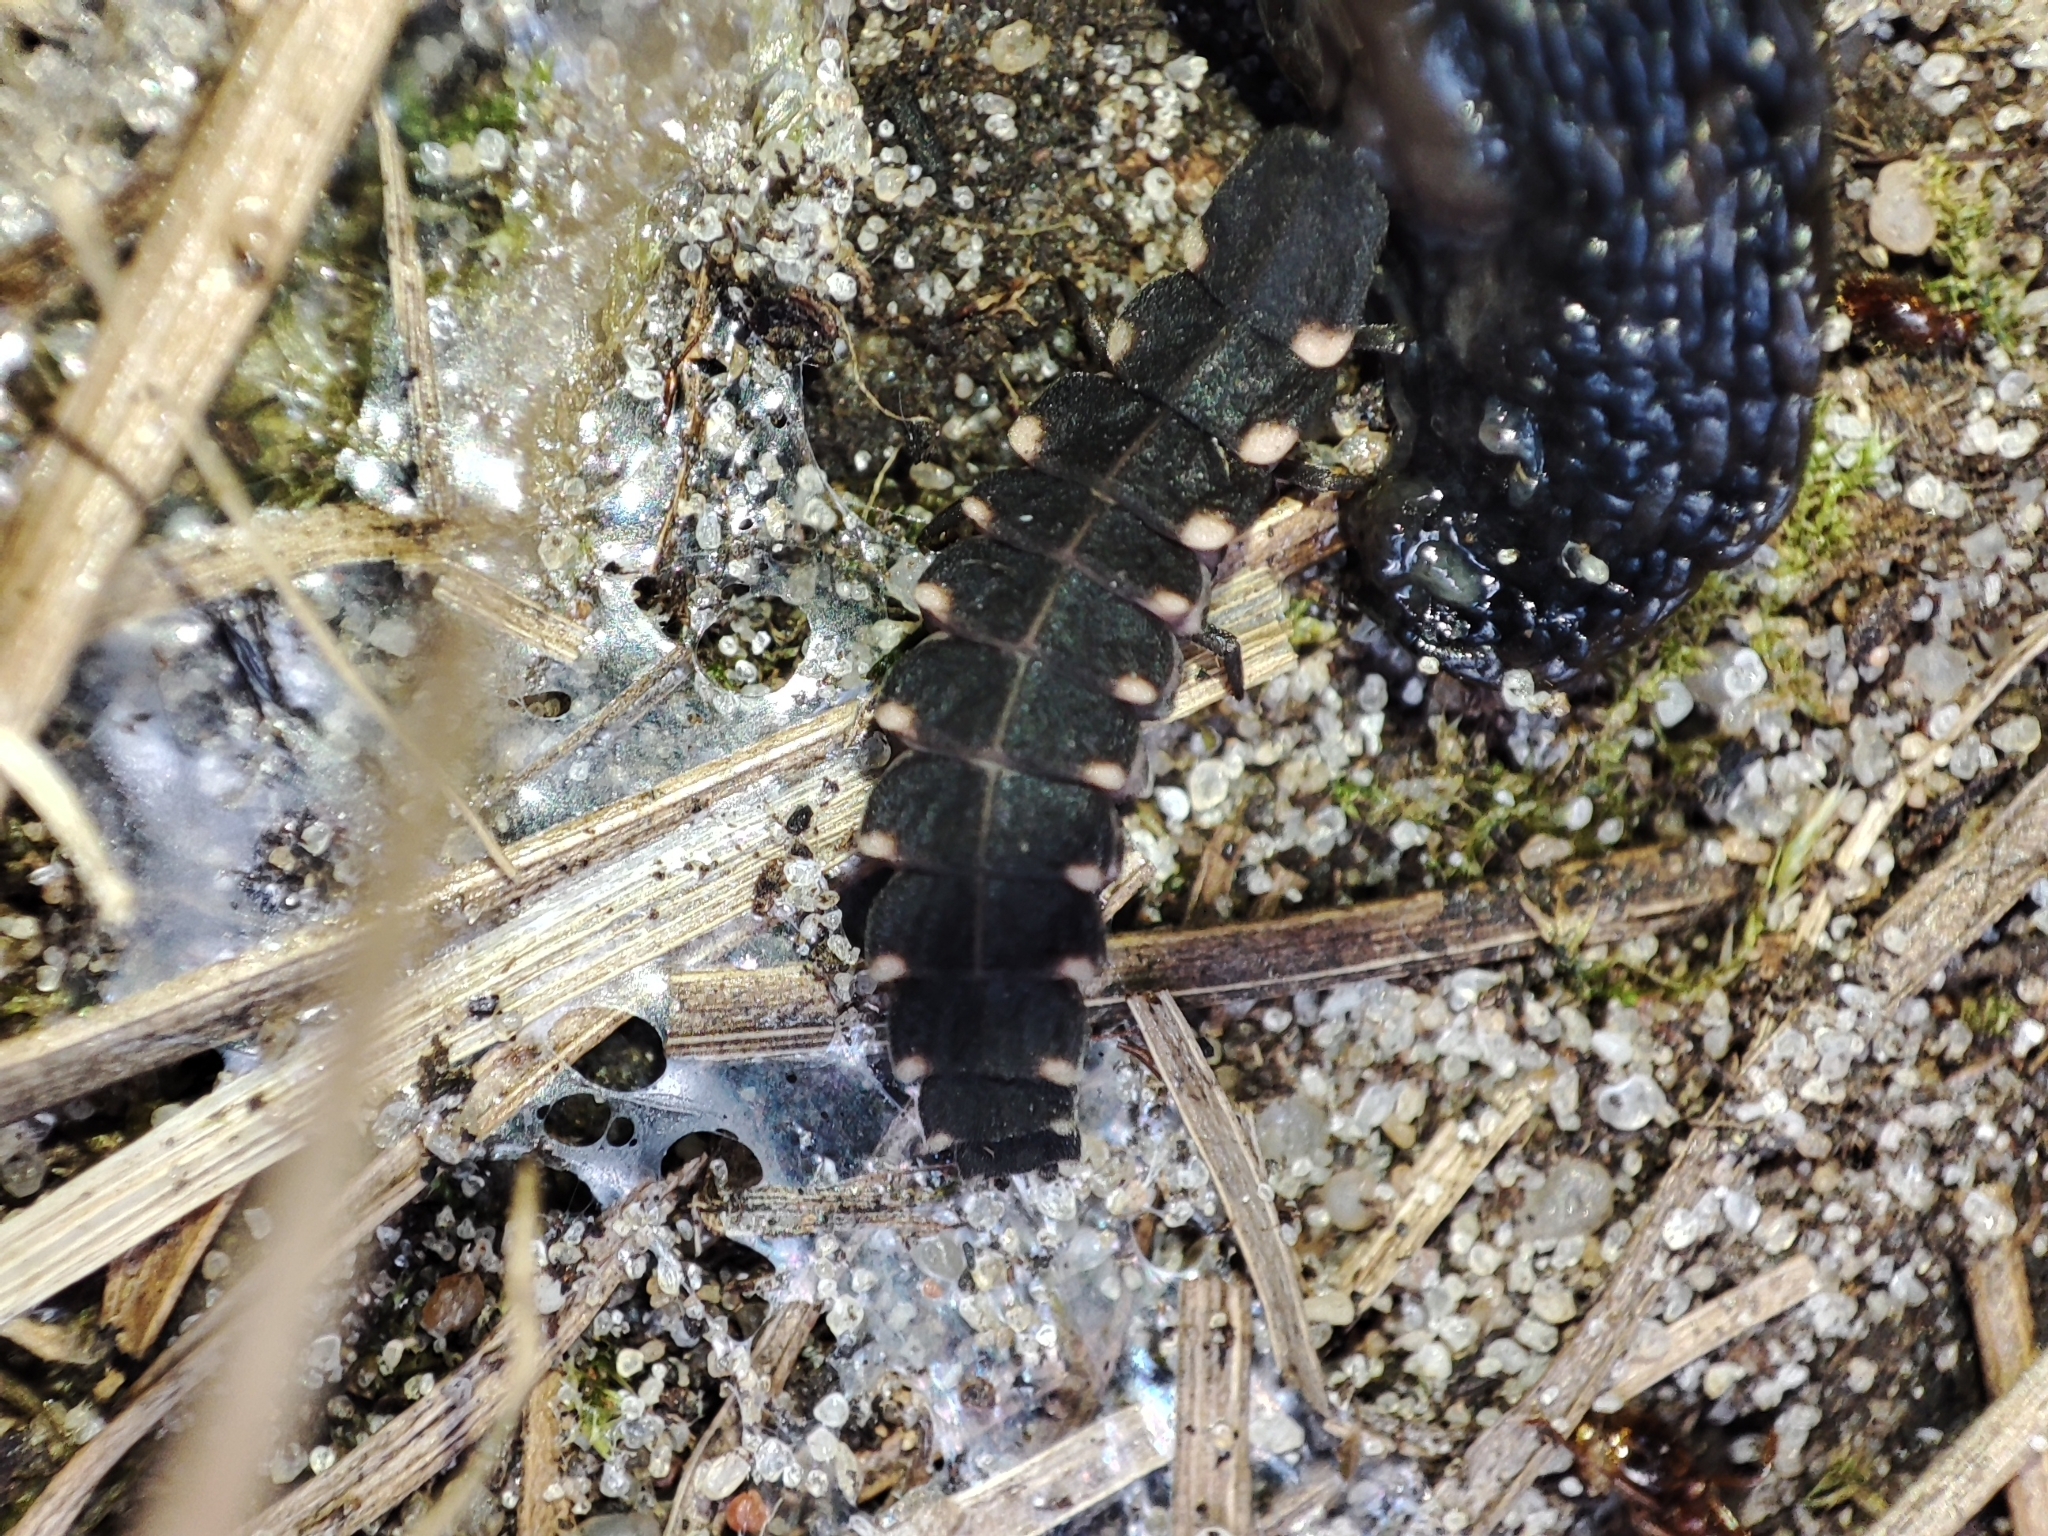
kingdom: Animalia
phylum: Arthropoda
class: Insecta
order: Coleoptera
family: Lampyridae
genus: Lampyris
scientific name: Lampyris noctiluca
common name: Glow-worm
